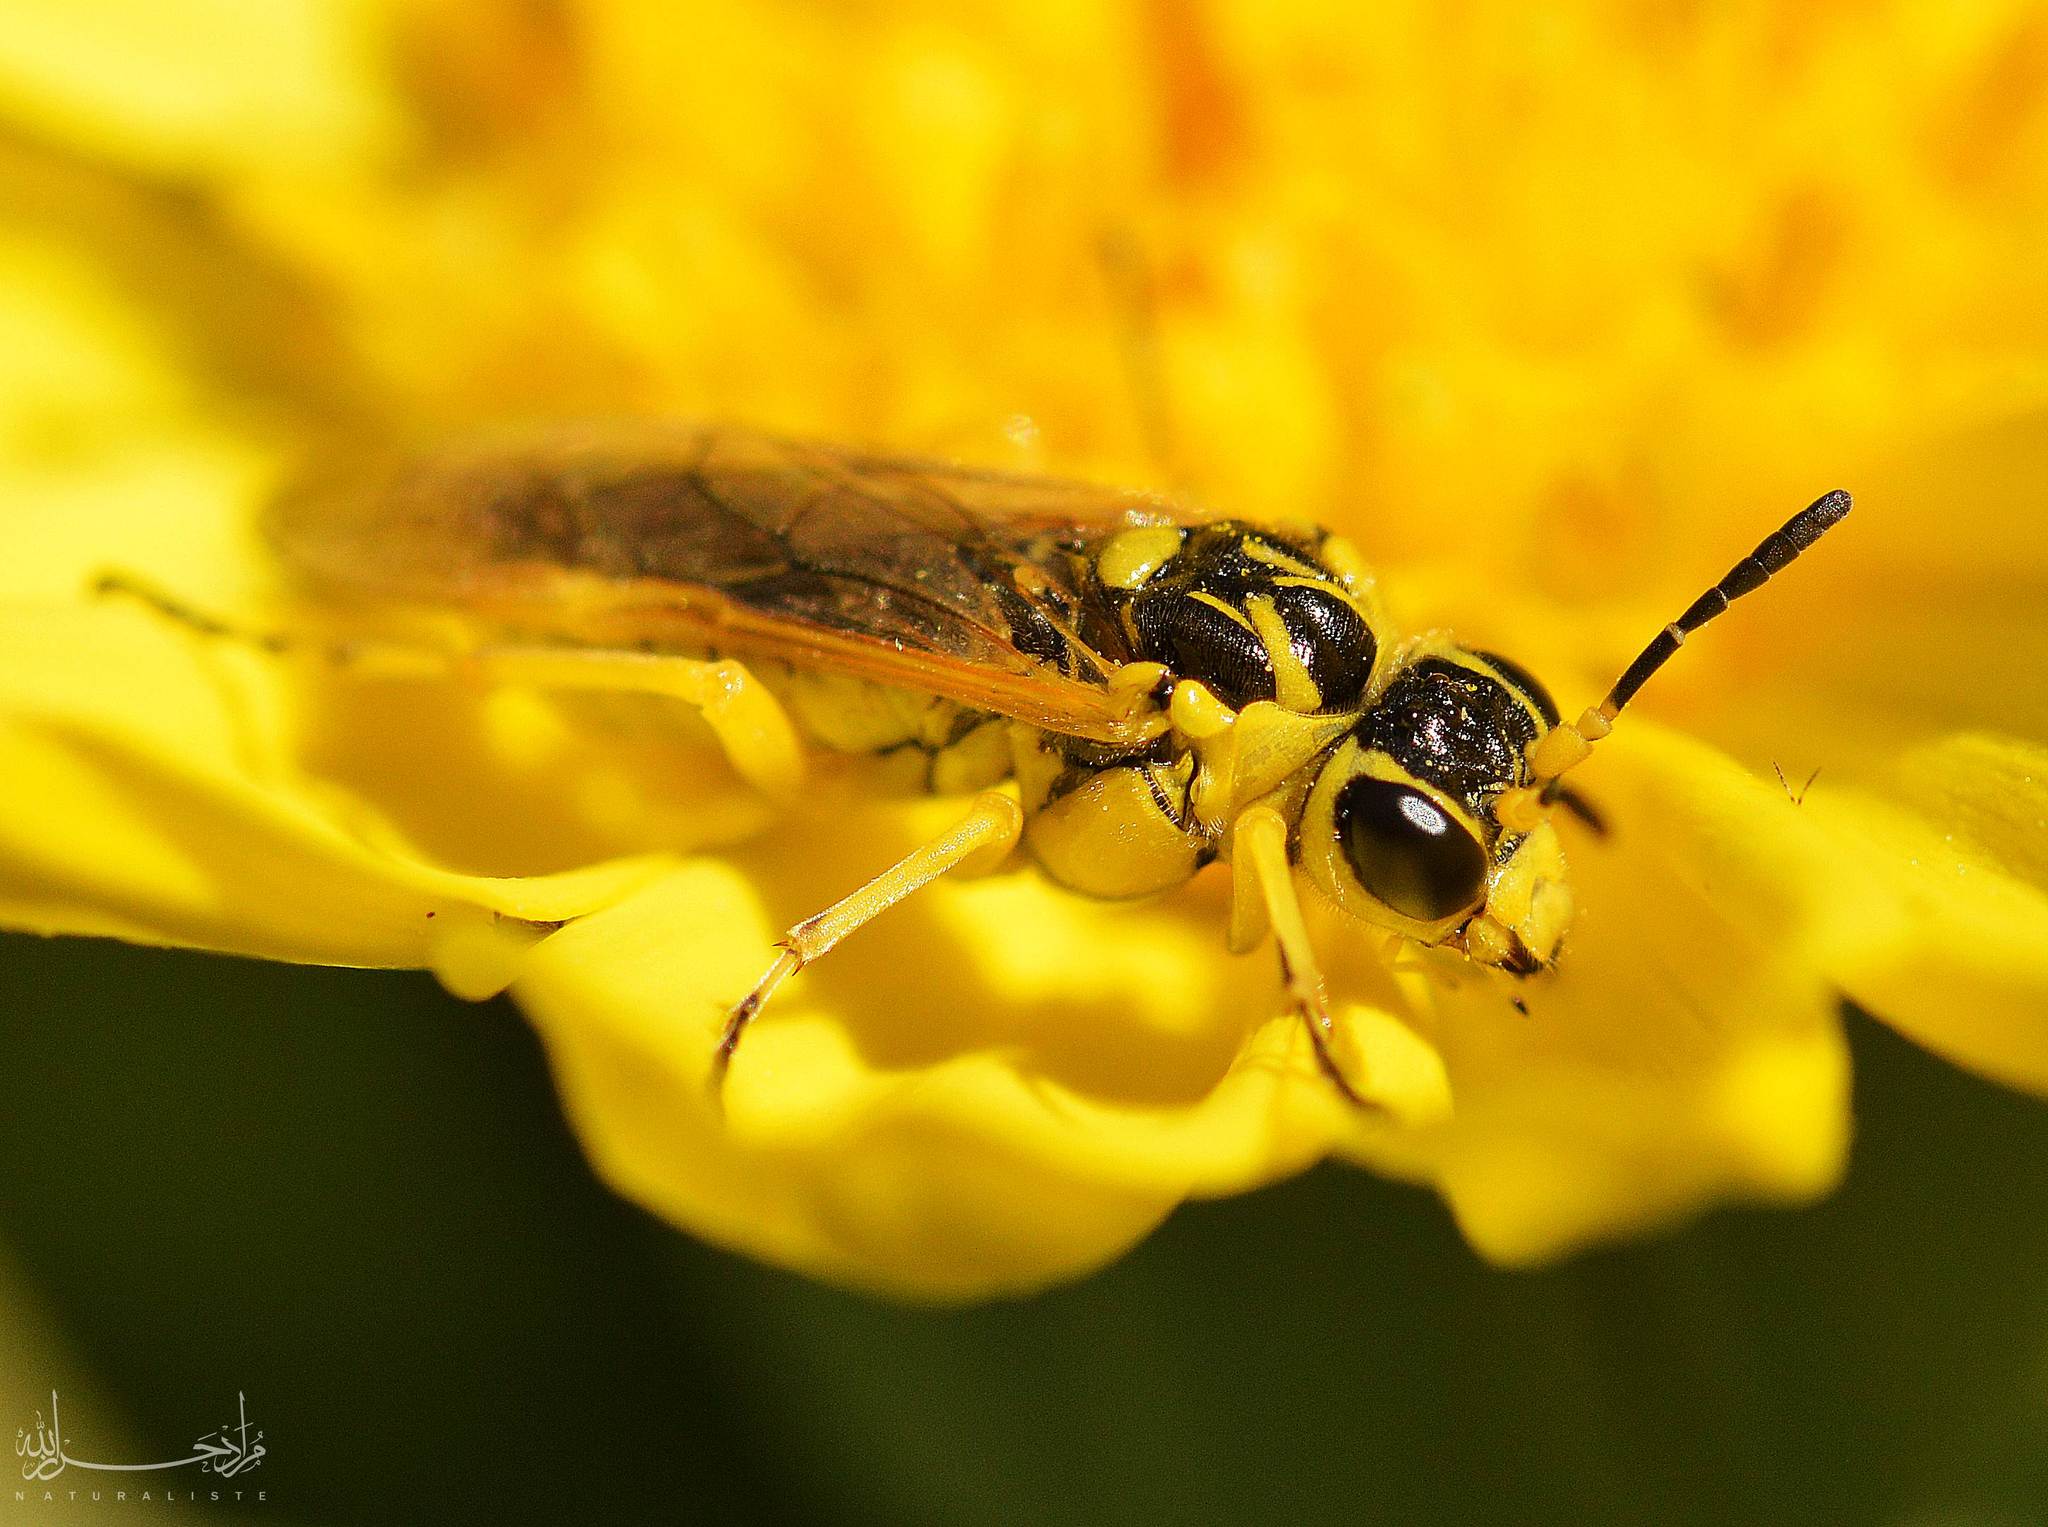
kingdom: Animalia
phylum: Arthropoda
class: Insecta
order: Hymenoptera
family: Tenthredinidae
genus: Tenthredo
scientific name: Tenthredo
